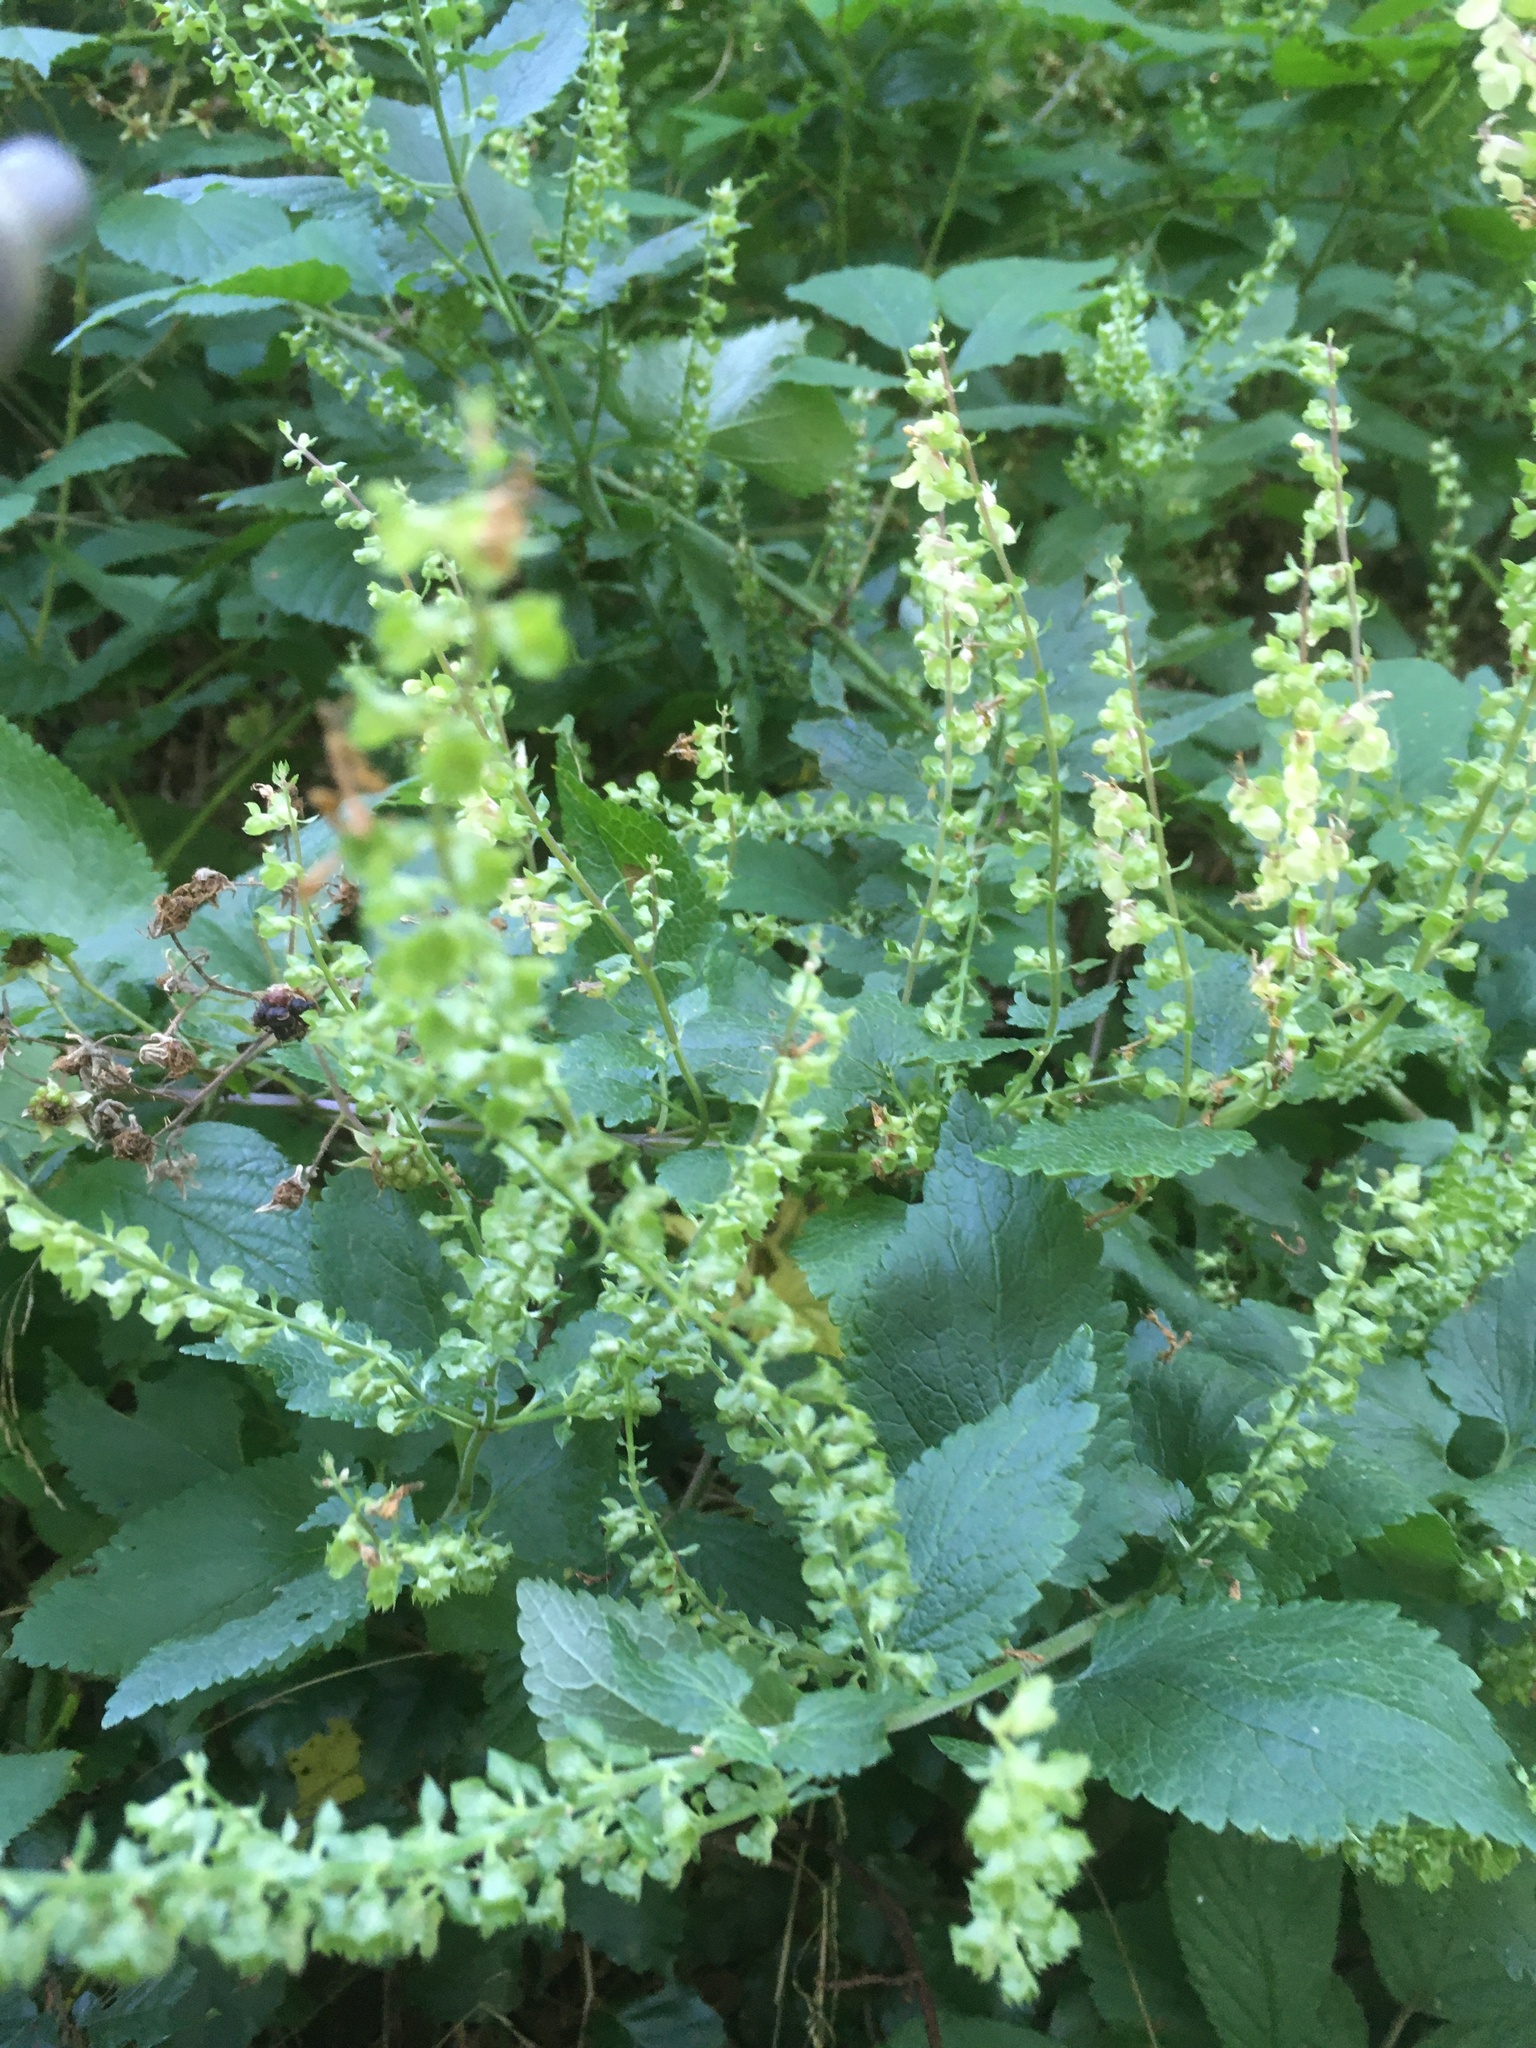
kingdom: Plantae
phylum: Tracheophyta
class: Magnoliopsida
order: Lamiales
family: Lamiaceae
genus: Teucrium
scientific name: Teucrium scorodonia
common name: Woodland germander
